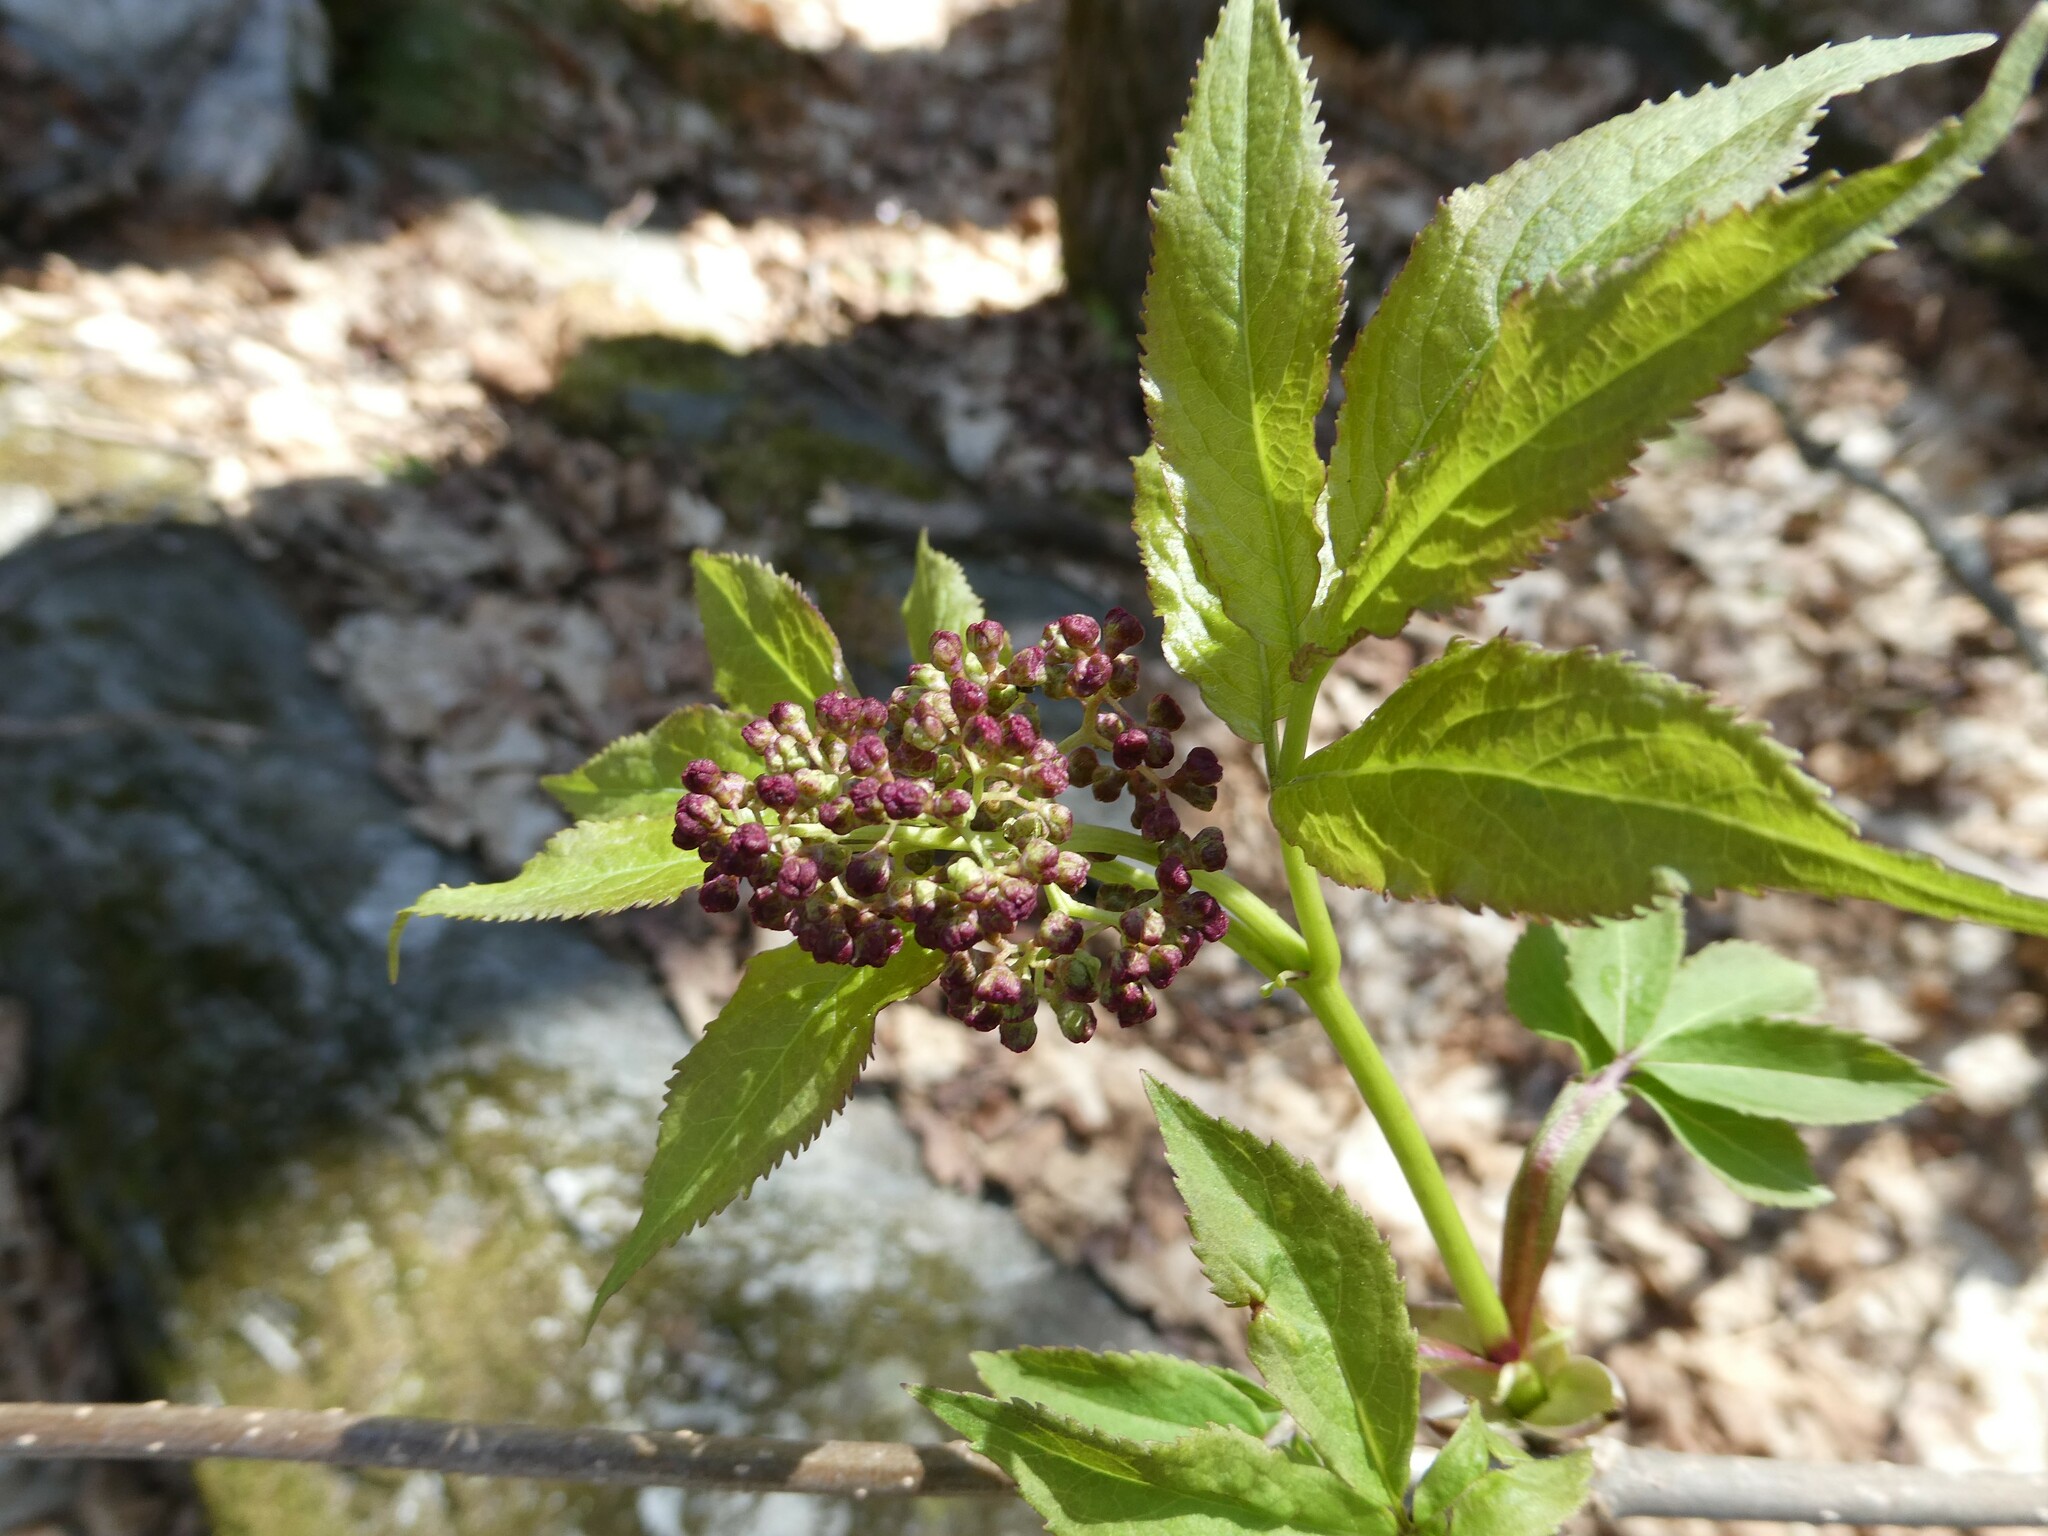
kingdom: Plantae
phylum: Tracheophyta
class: Magnoliopsida
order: Dipsacales
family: Viburnaceae
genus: Sambucus
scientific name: Sambucus racemosa
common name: Red-berried elder
